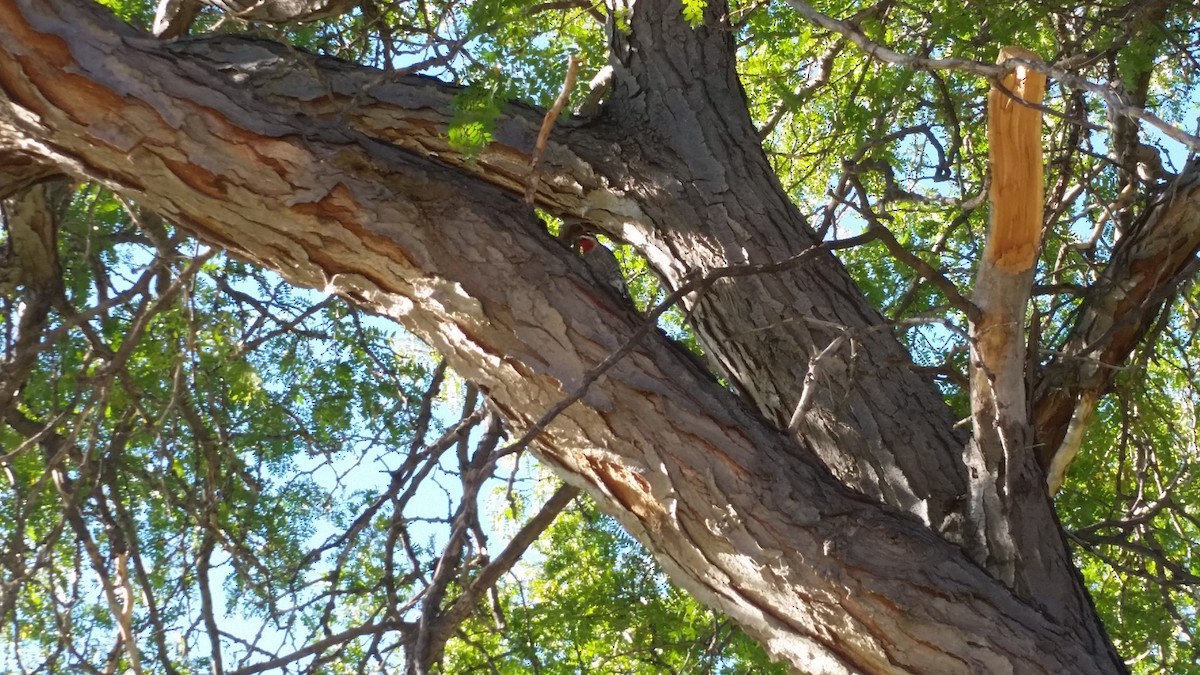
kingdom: Animalia
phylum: Chordata
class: Aves
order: Piciformes
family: Picidae
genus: Sphyrapicus
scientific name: Sphyrapicus nuchalis
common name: Red-naped sapsucker
